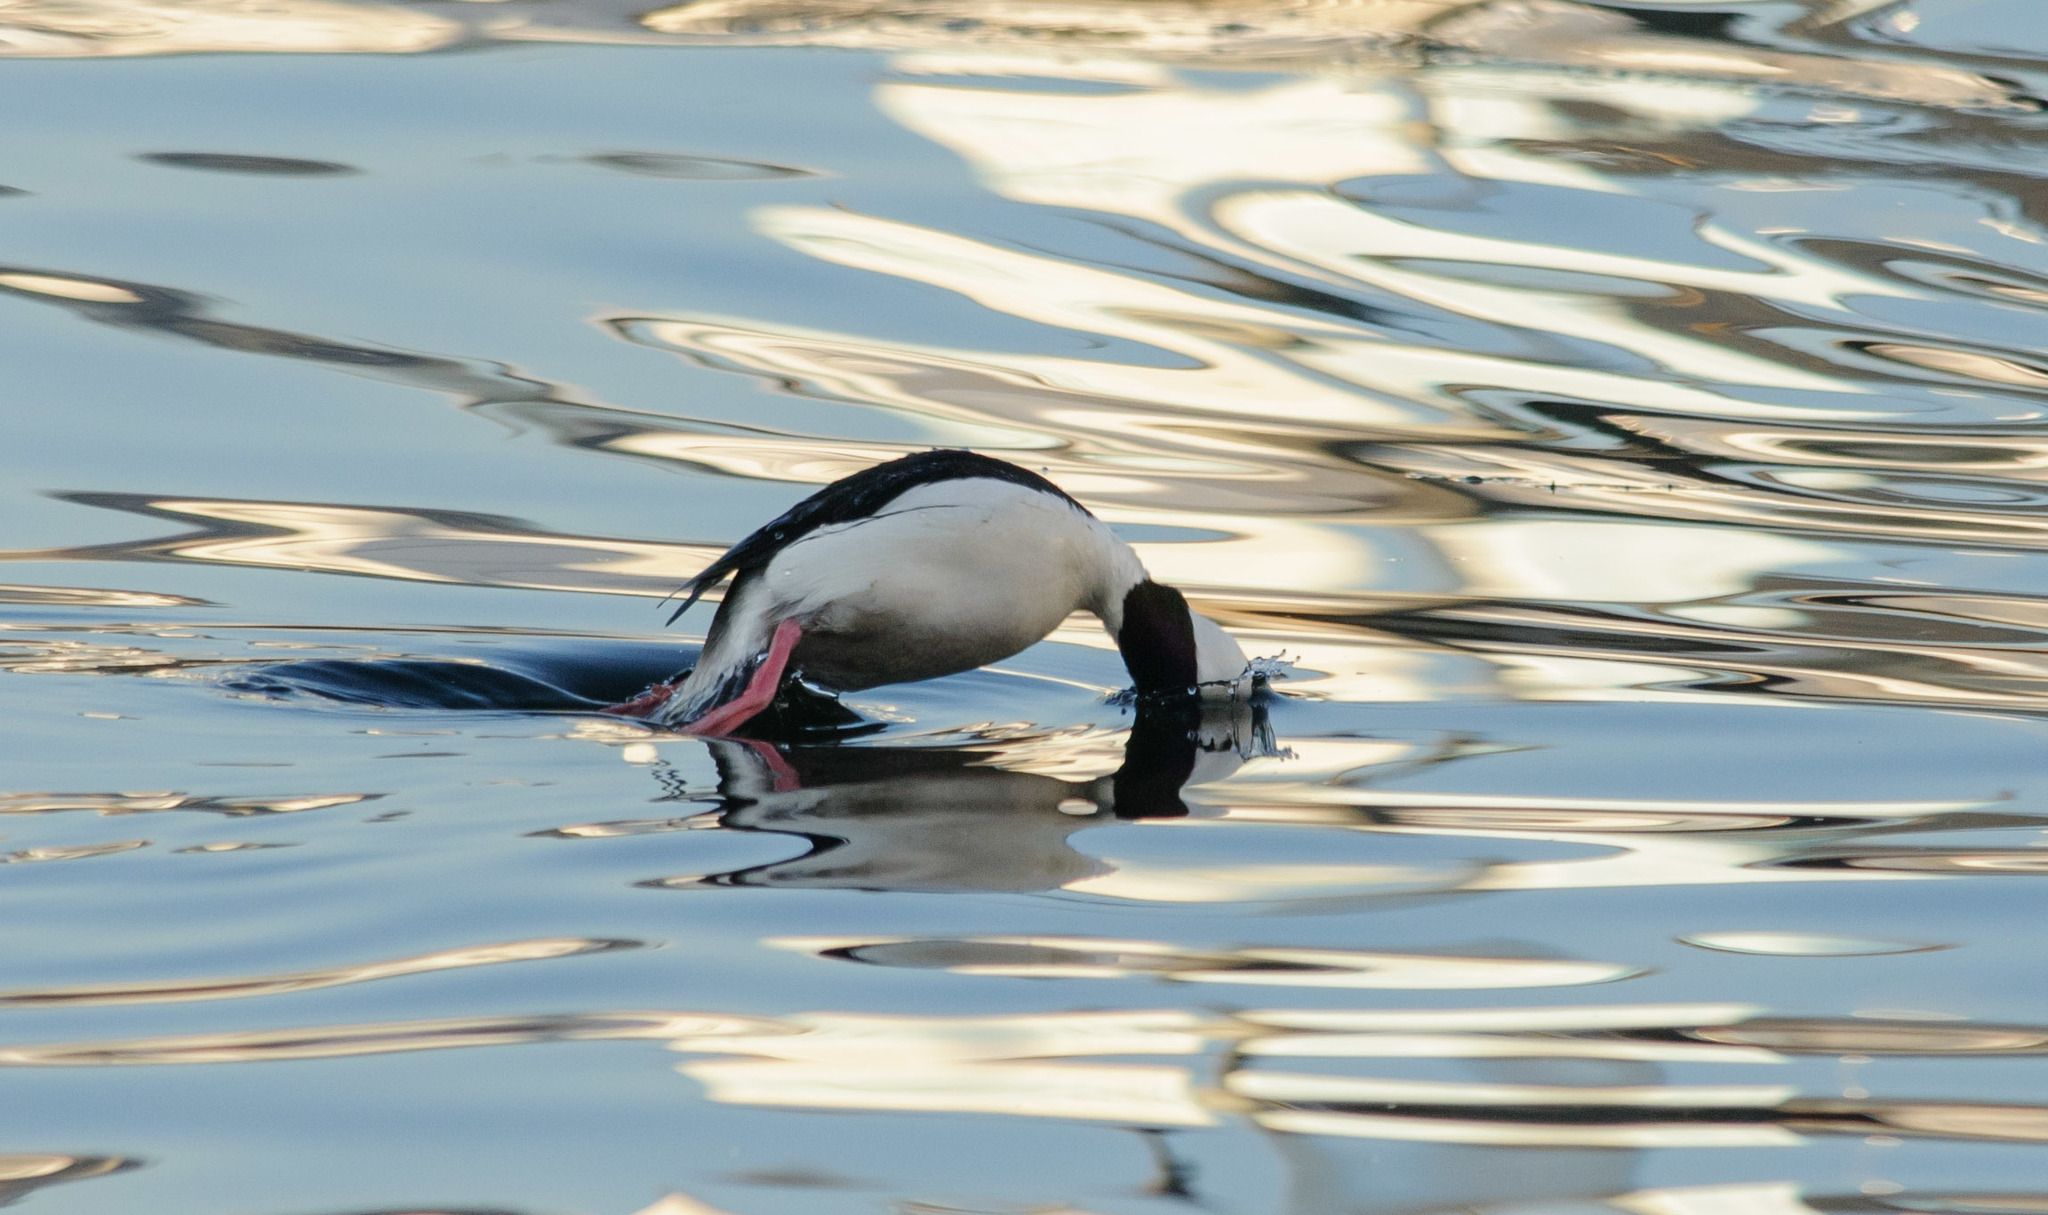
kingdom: Animalia
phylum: Chordata
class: Aves
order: Anseriformes
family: Anatidae
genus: Bucephala
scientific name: Bucephala albeola
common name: Bufflehead
